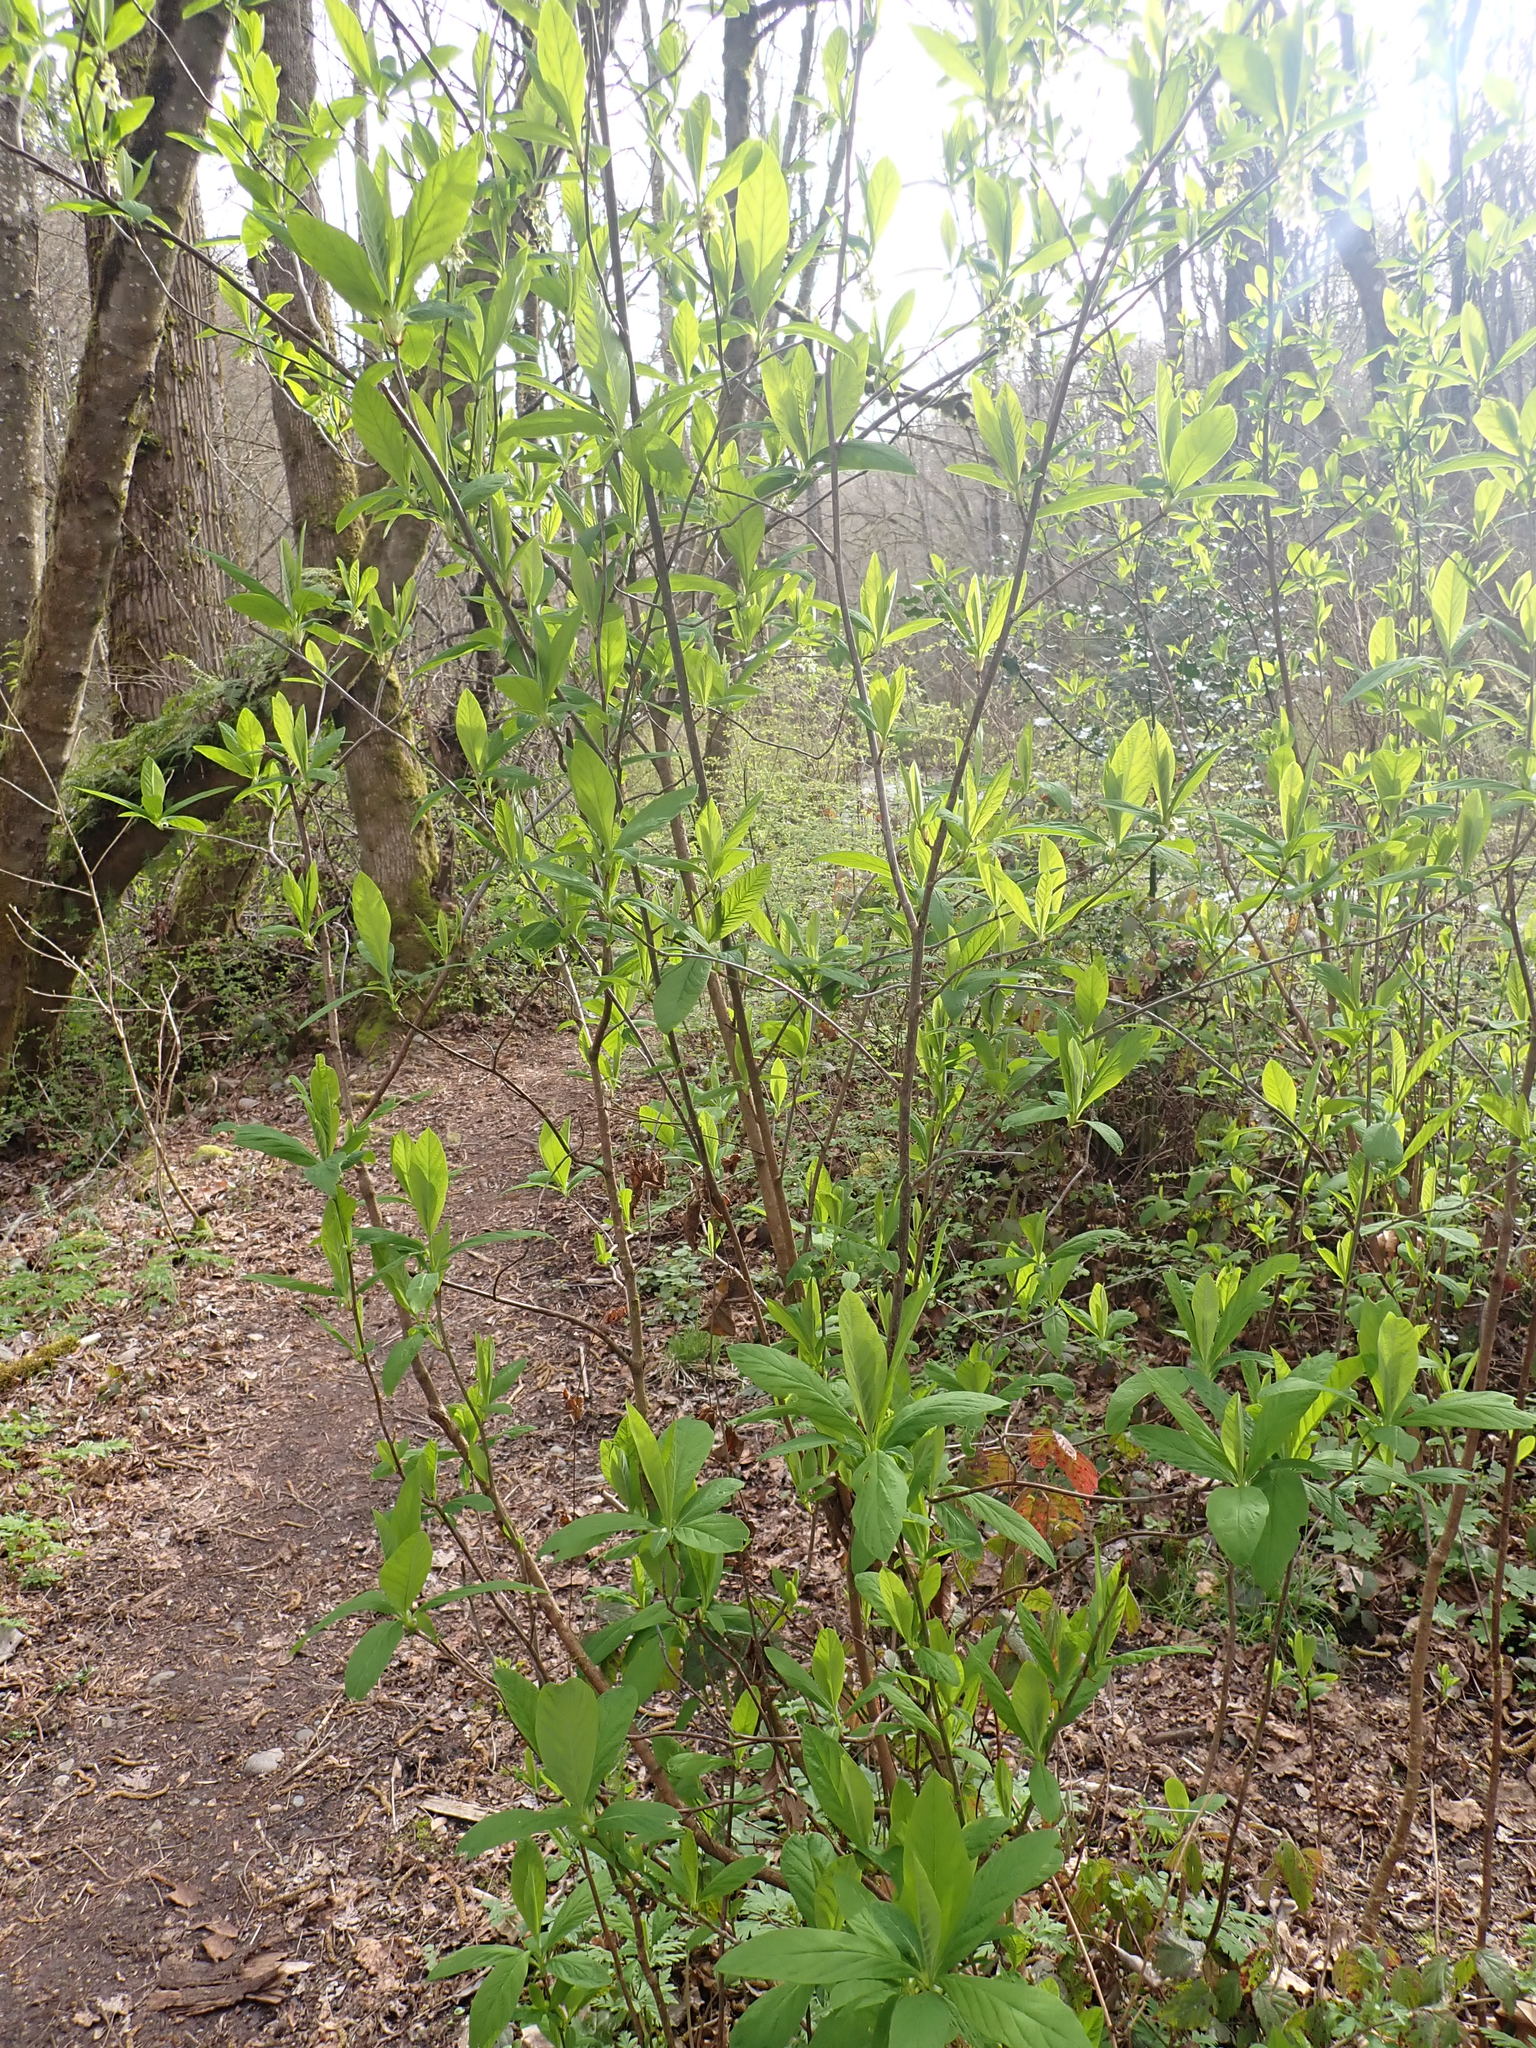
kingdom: Plantae
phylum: Tracheophyta
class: Magnoliopsida
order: Rosales
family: Rosaceae
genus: Oemleria
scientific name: Oemleria cerasiformis
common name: Osoberry
